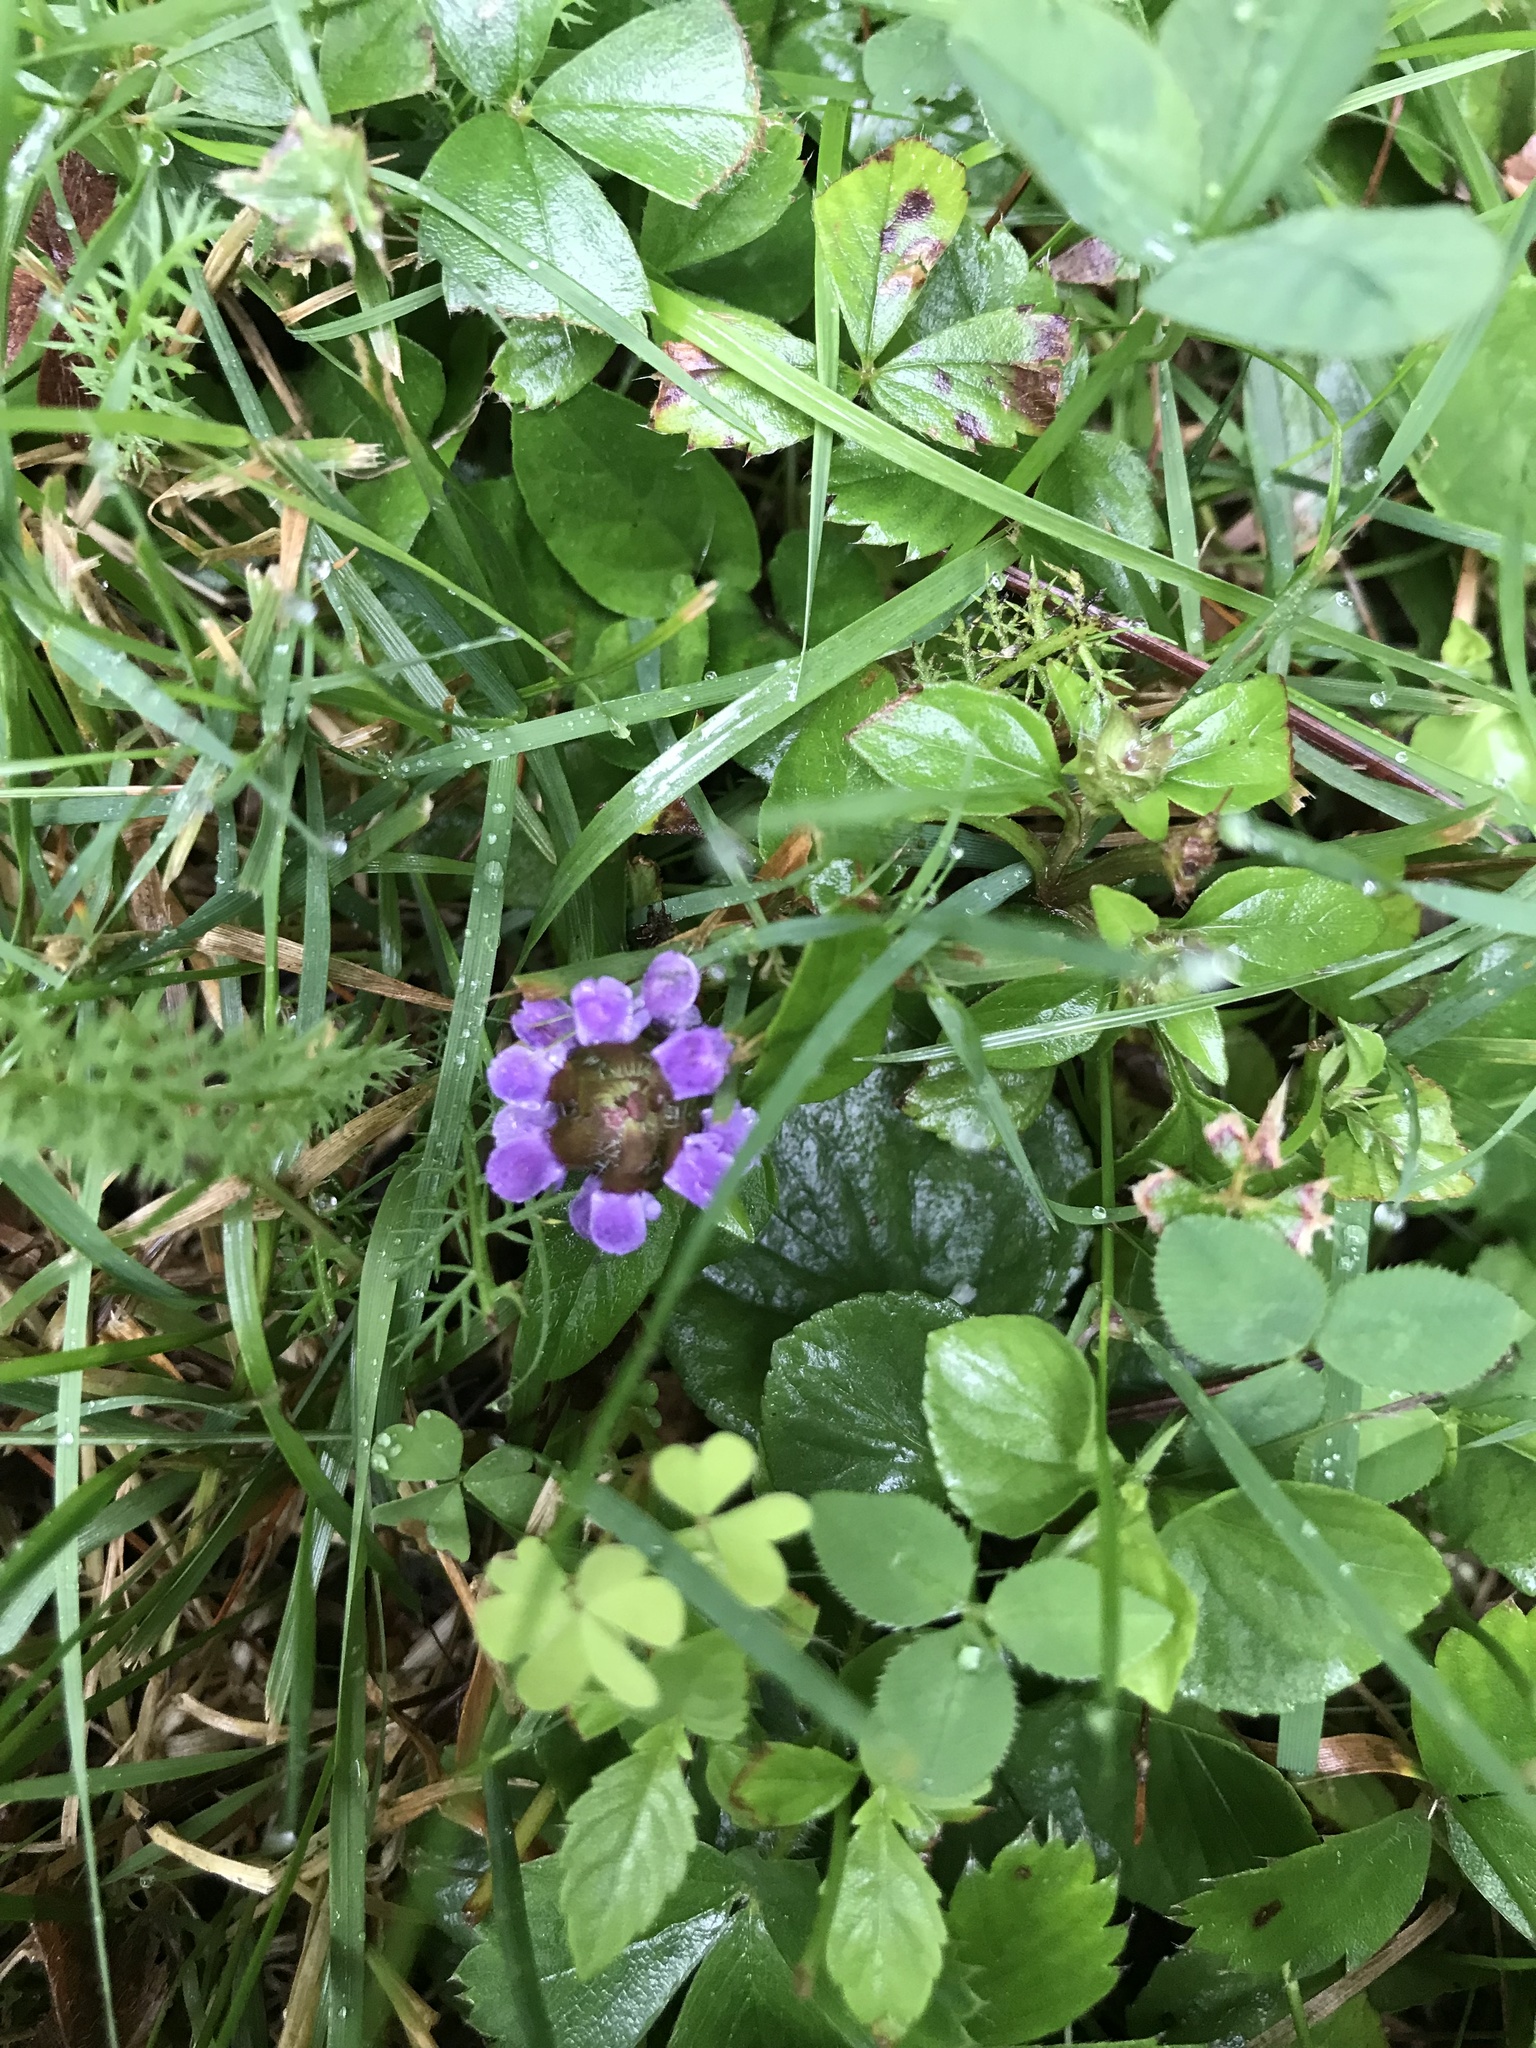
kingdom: Plantae
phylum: Tracheophyta
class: Magnoliopsida
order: Lamiales
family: Lamiaceae
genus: Prunella
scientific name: Prunella vulgaris
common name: Heal-all
